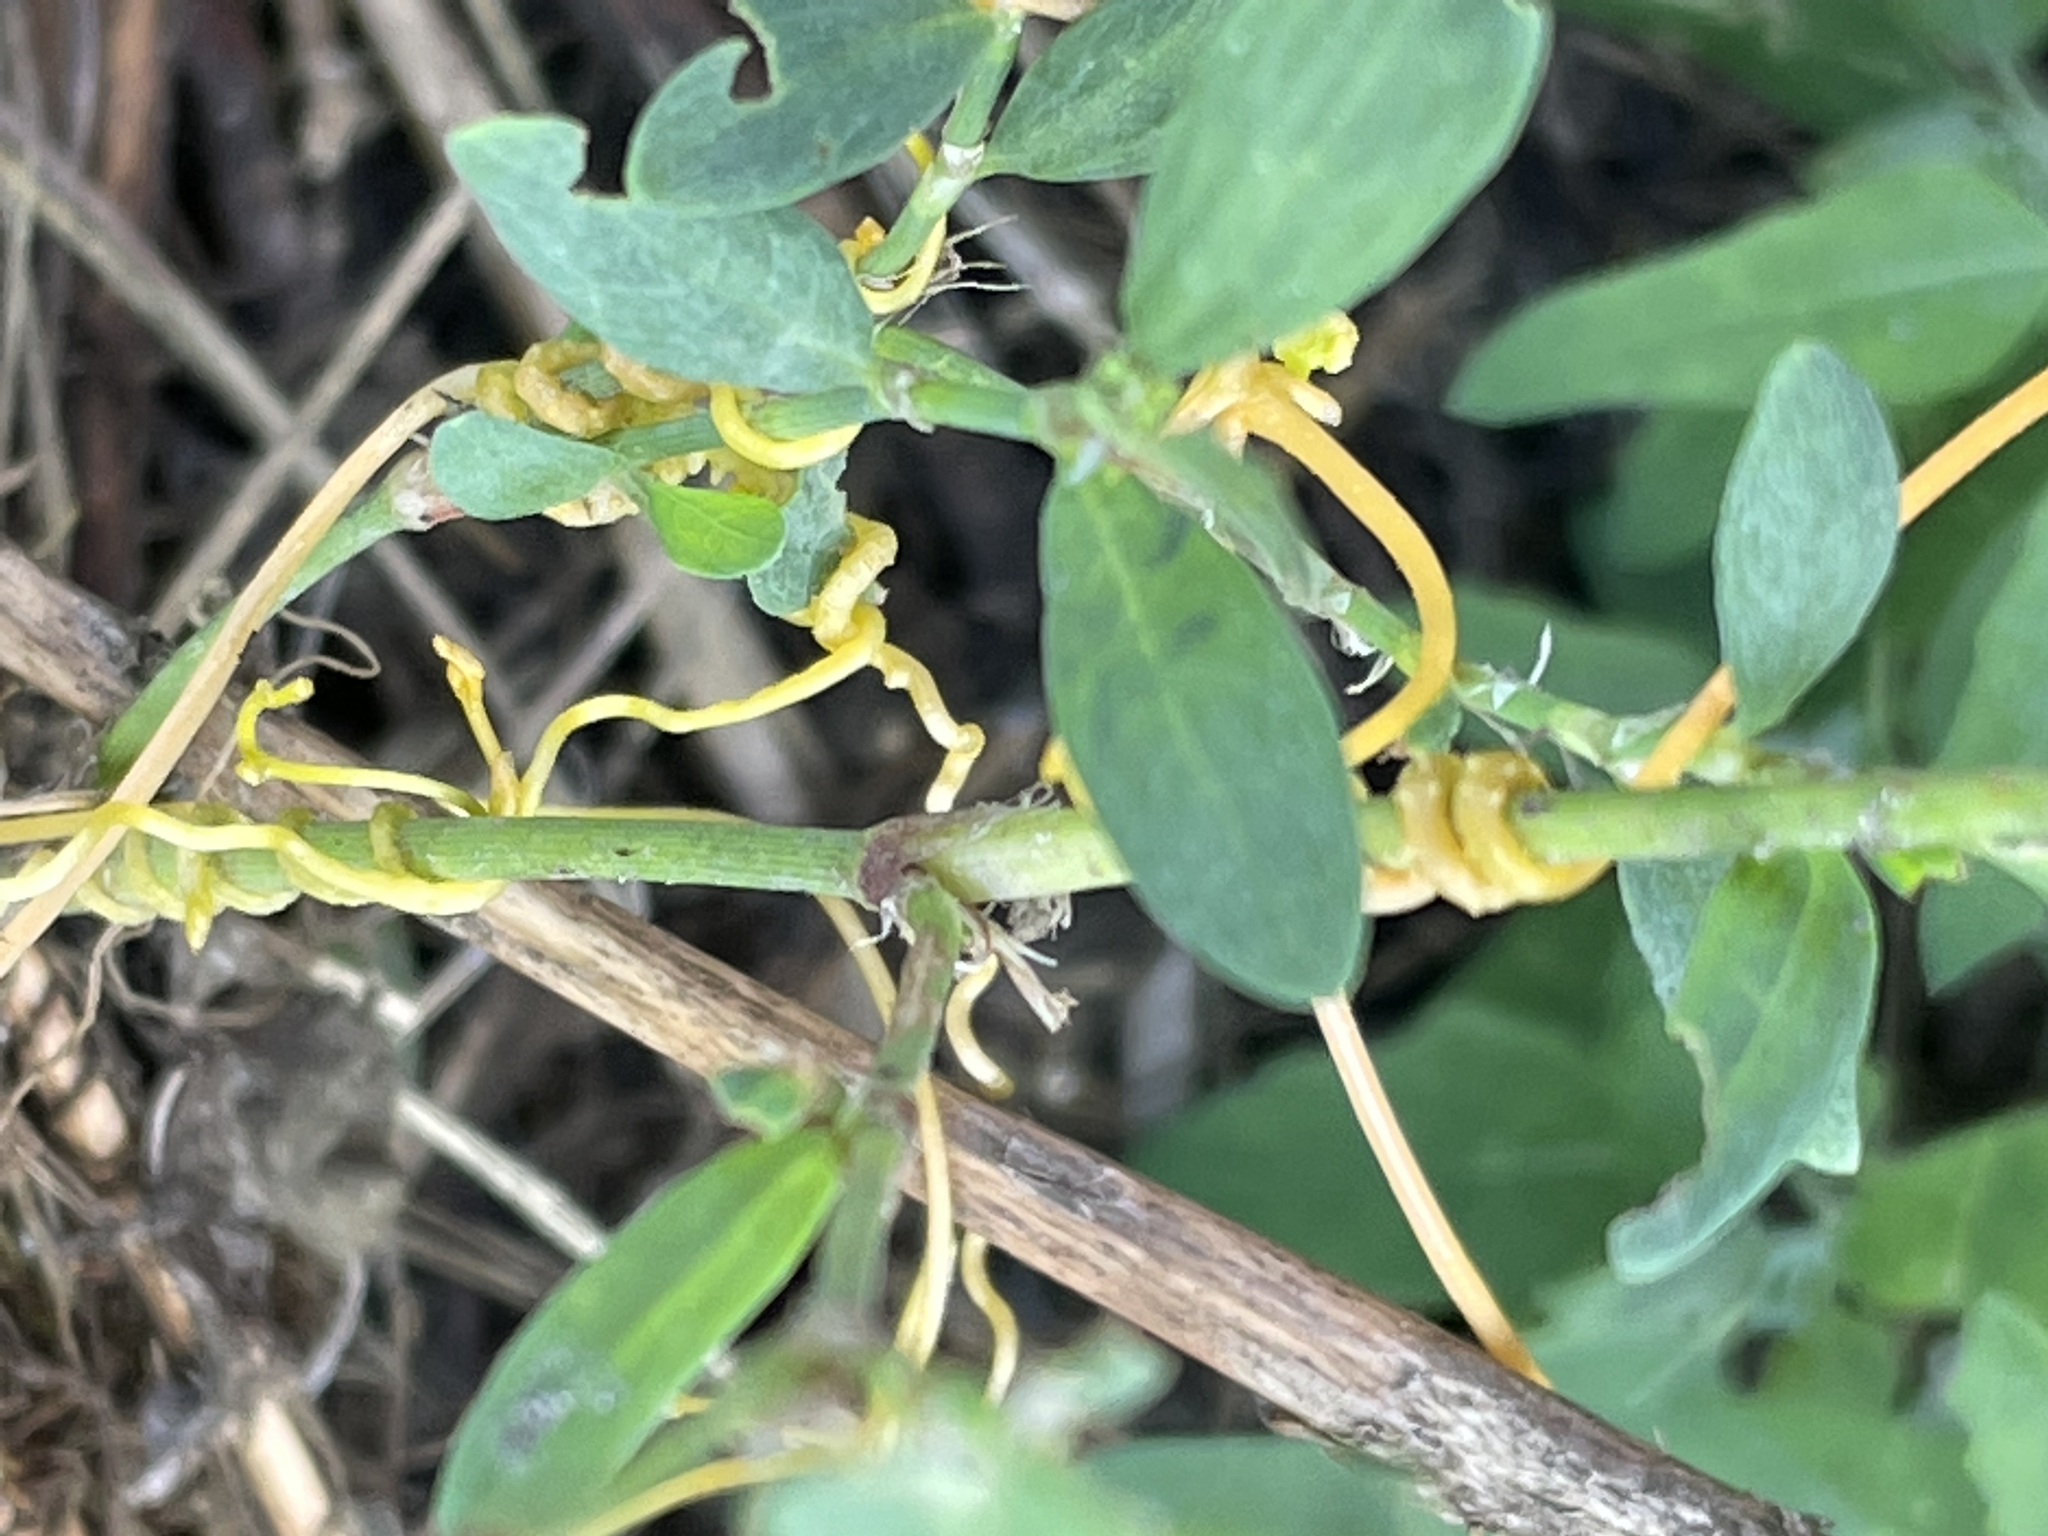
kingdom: Plantae
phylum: Tracheophyta
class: Magnoliopsida
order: Solanales
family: Convolvulaceae
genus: Cuscuta
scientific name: Cuscuta campestris
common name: Yellow dodder
